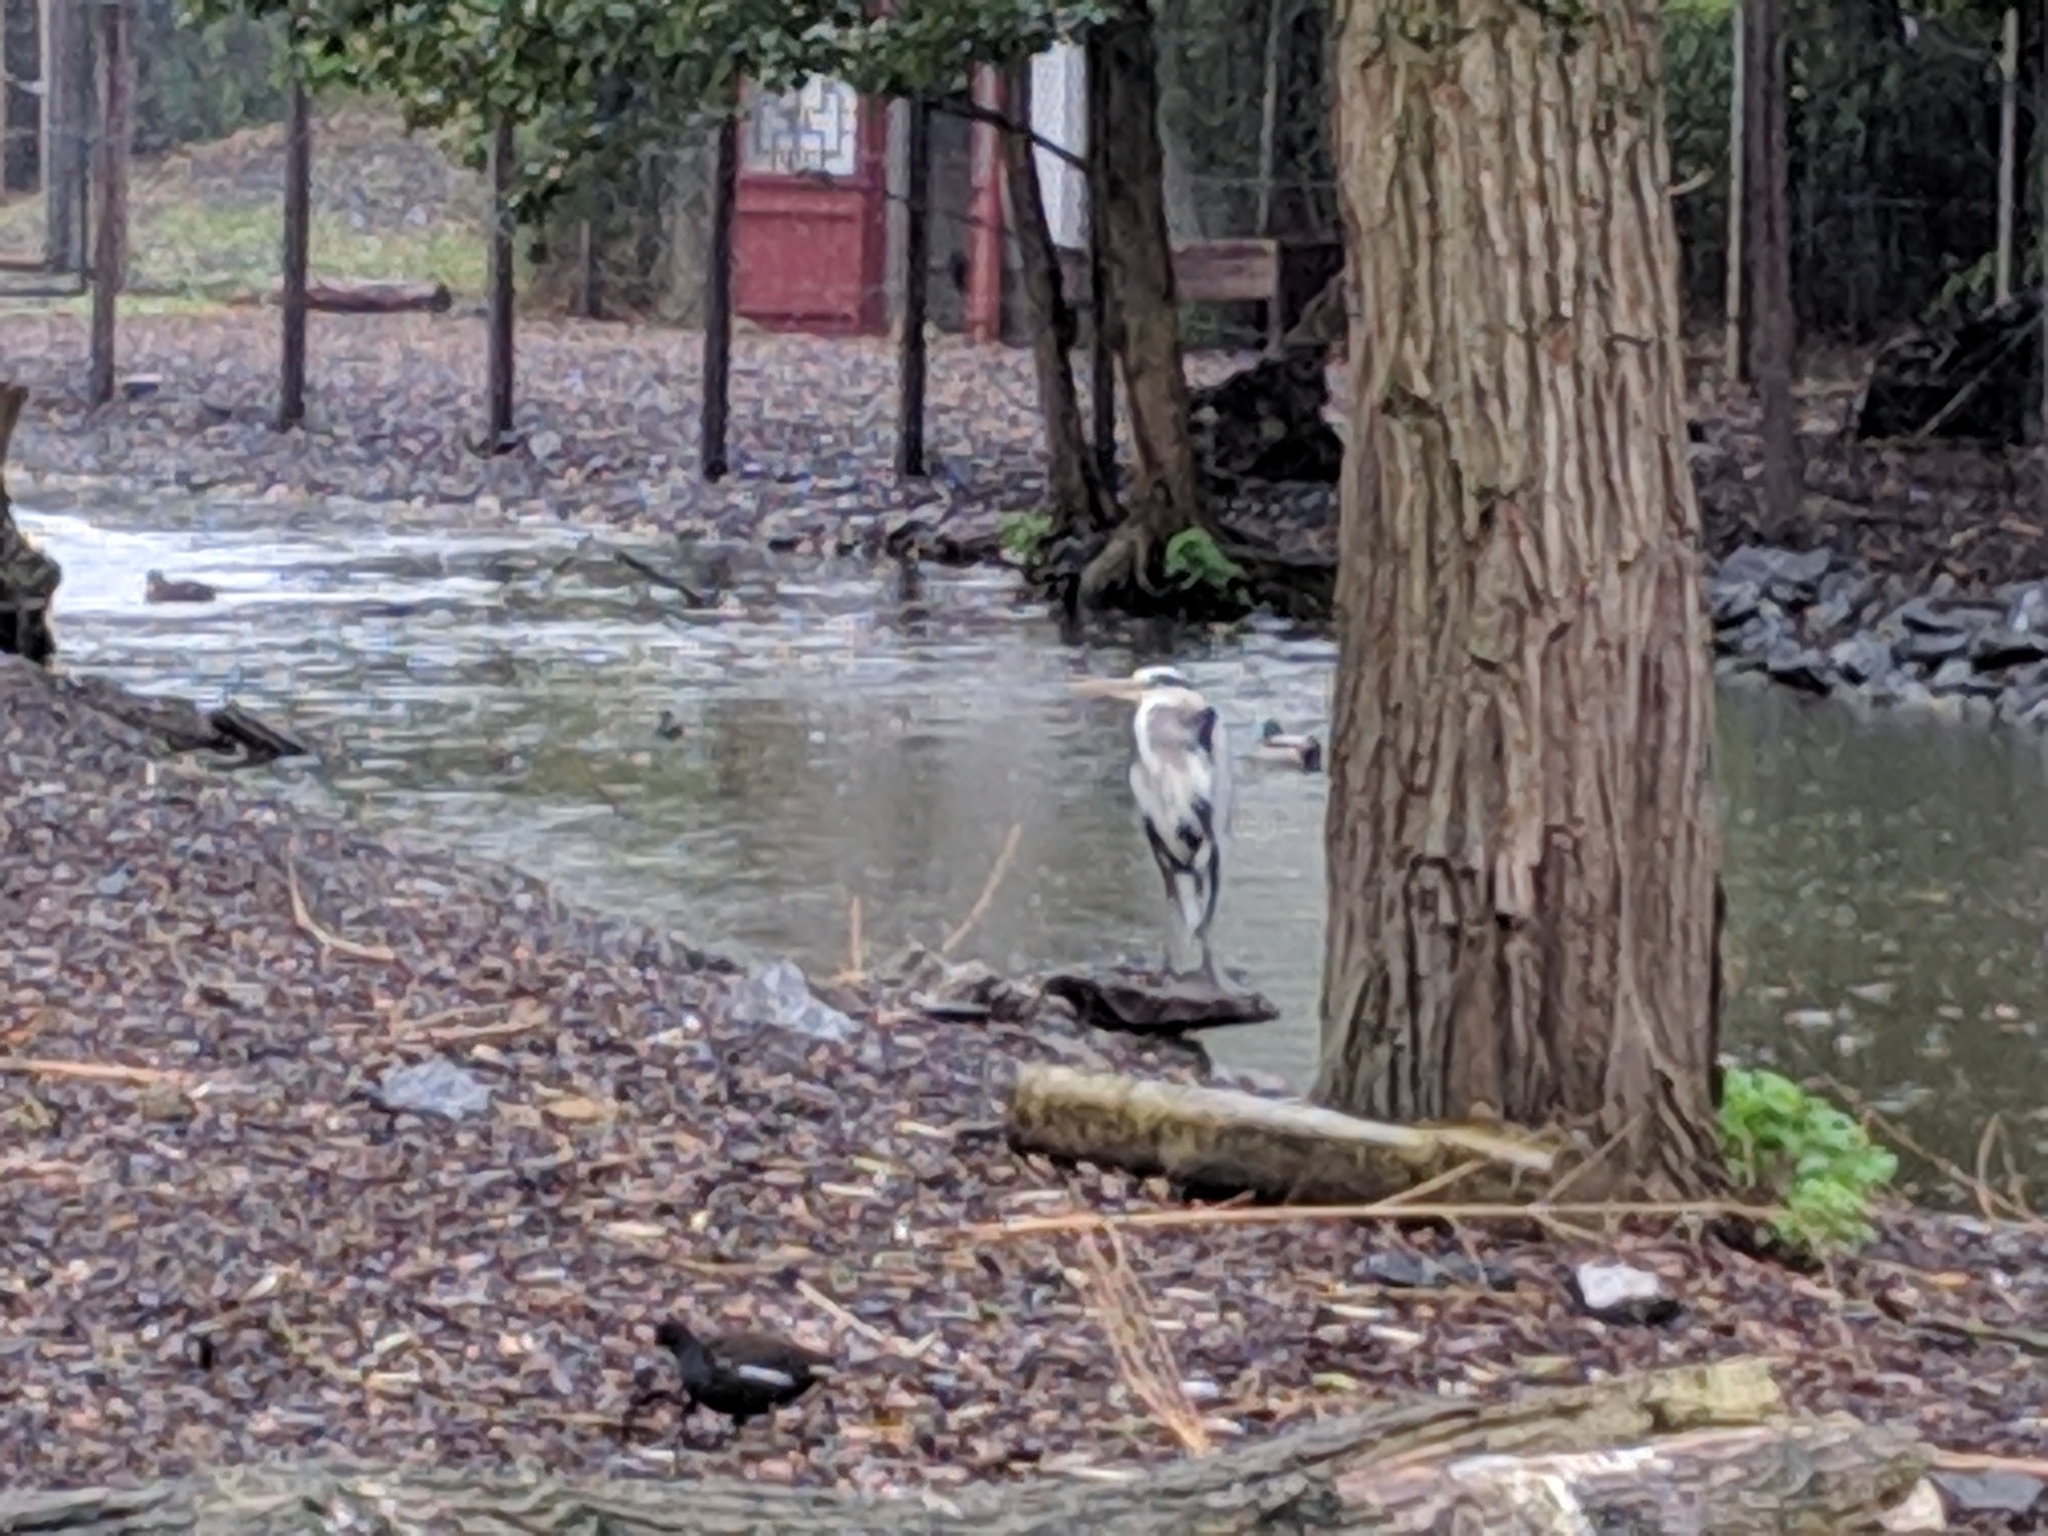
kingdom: Animalia
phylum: Chordata
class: Aves
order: Pelecaniformes
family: Ardeidae
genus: Ardea
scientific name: Ardea cinerea
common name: Grey heron
